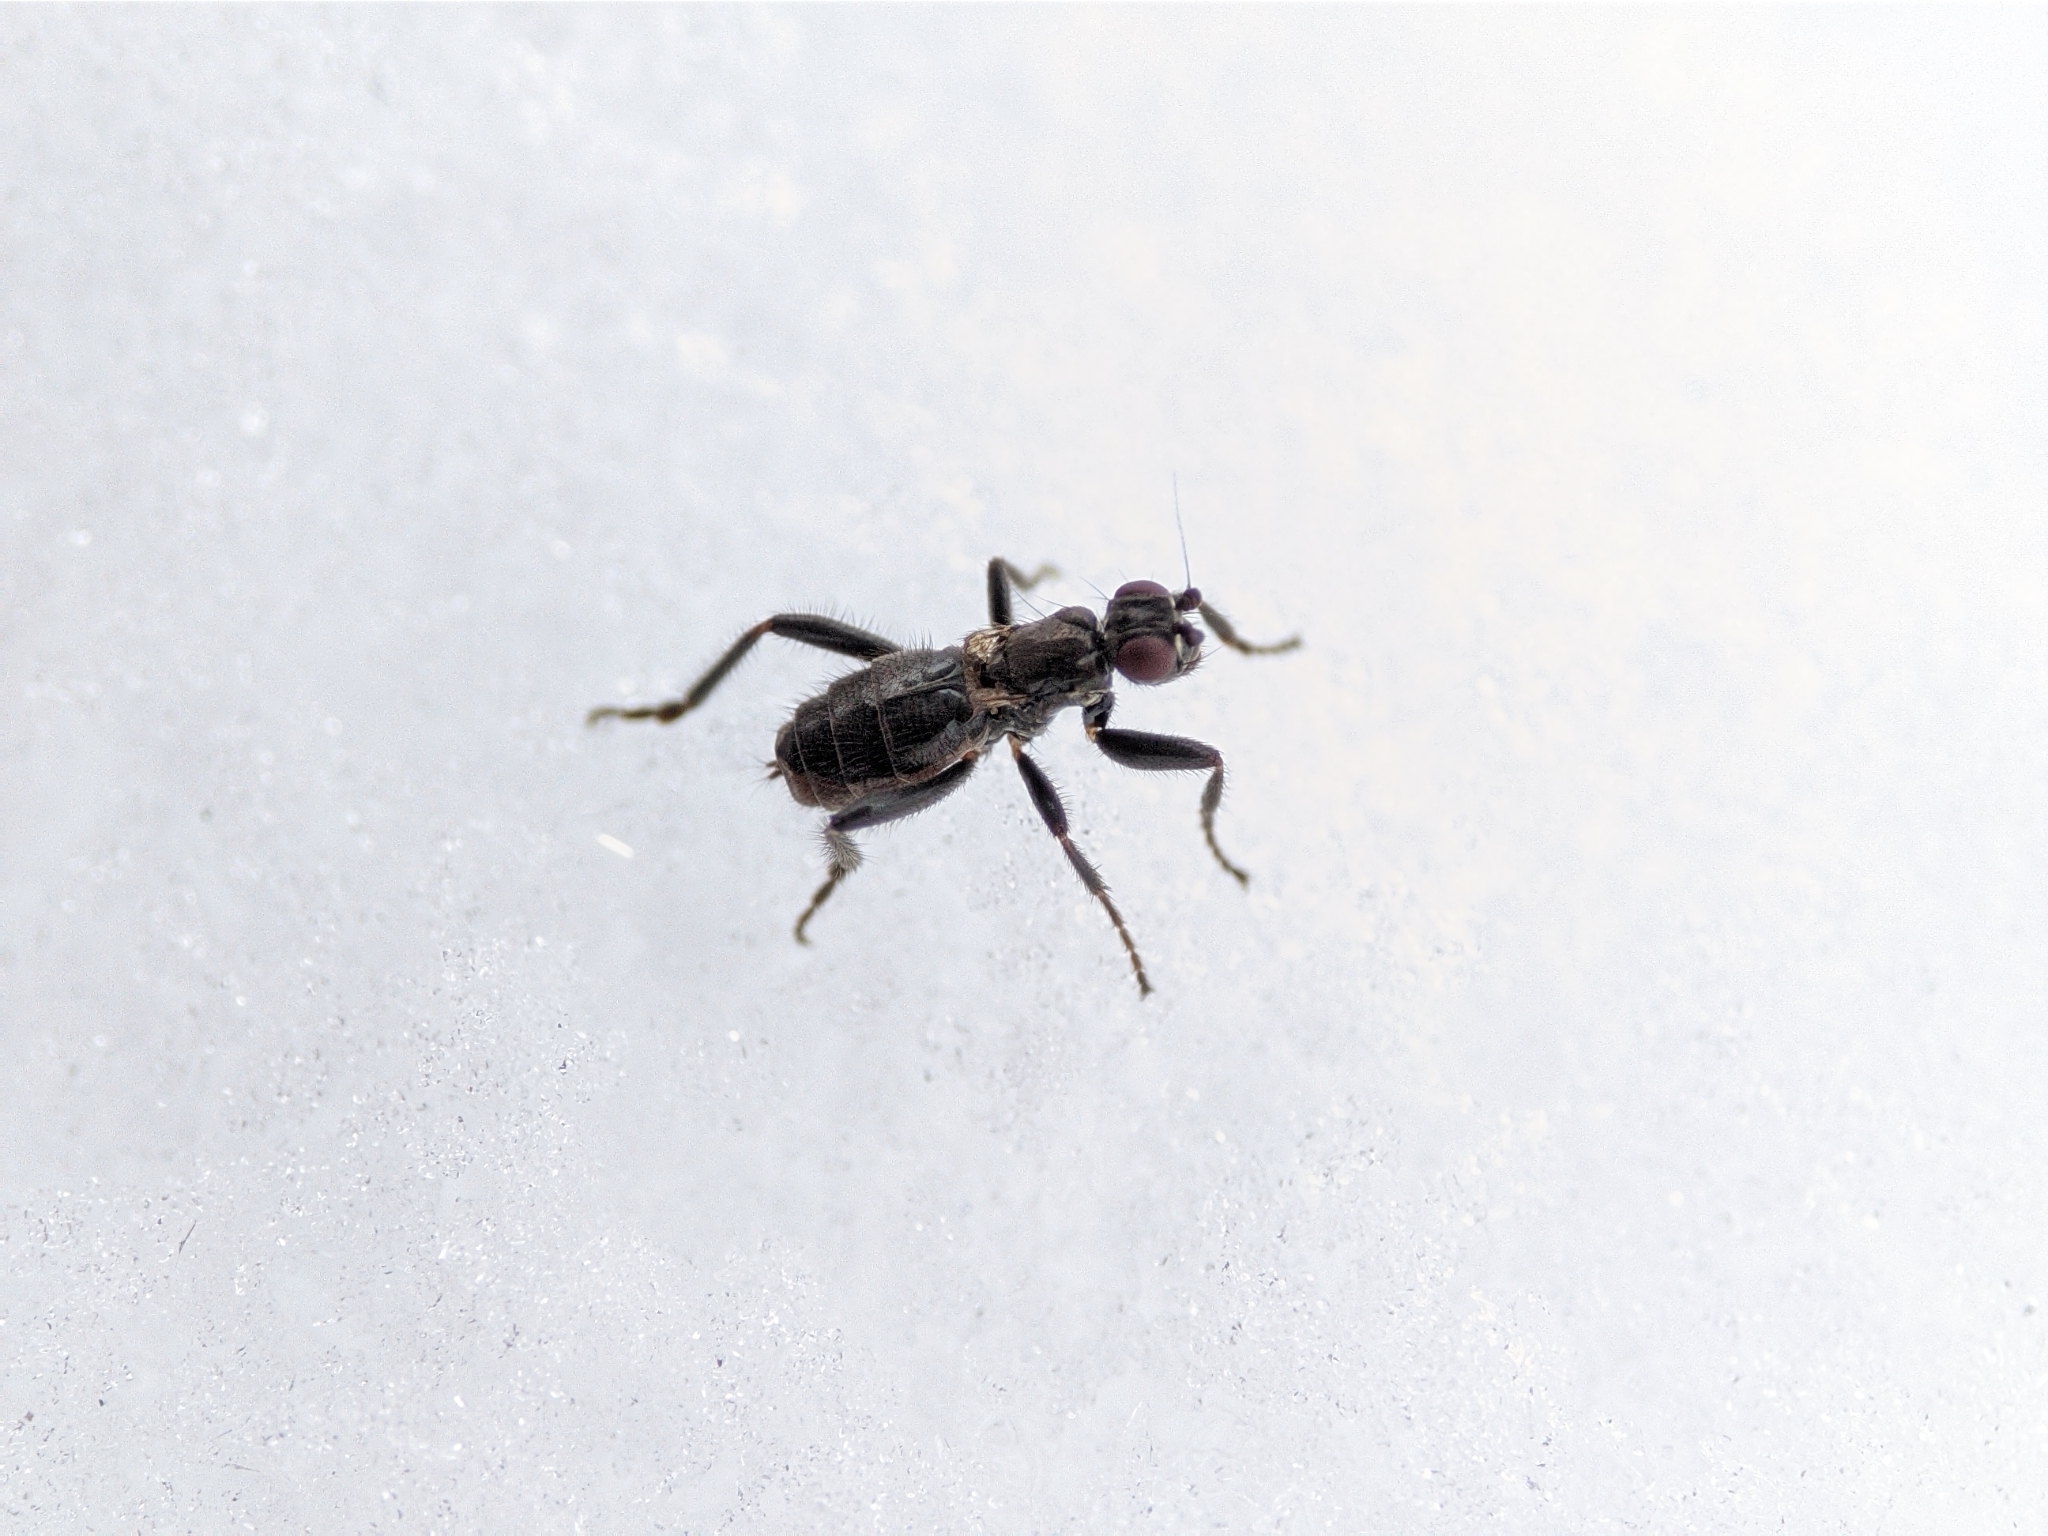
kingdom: Animalia
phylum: Arthropoda
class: Insecta
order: Diptera
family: Sphaeroceridae
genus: Crumomyia
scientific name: Crumomyia pedestris
